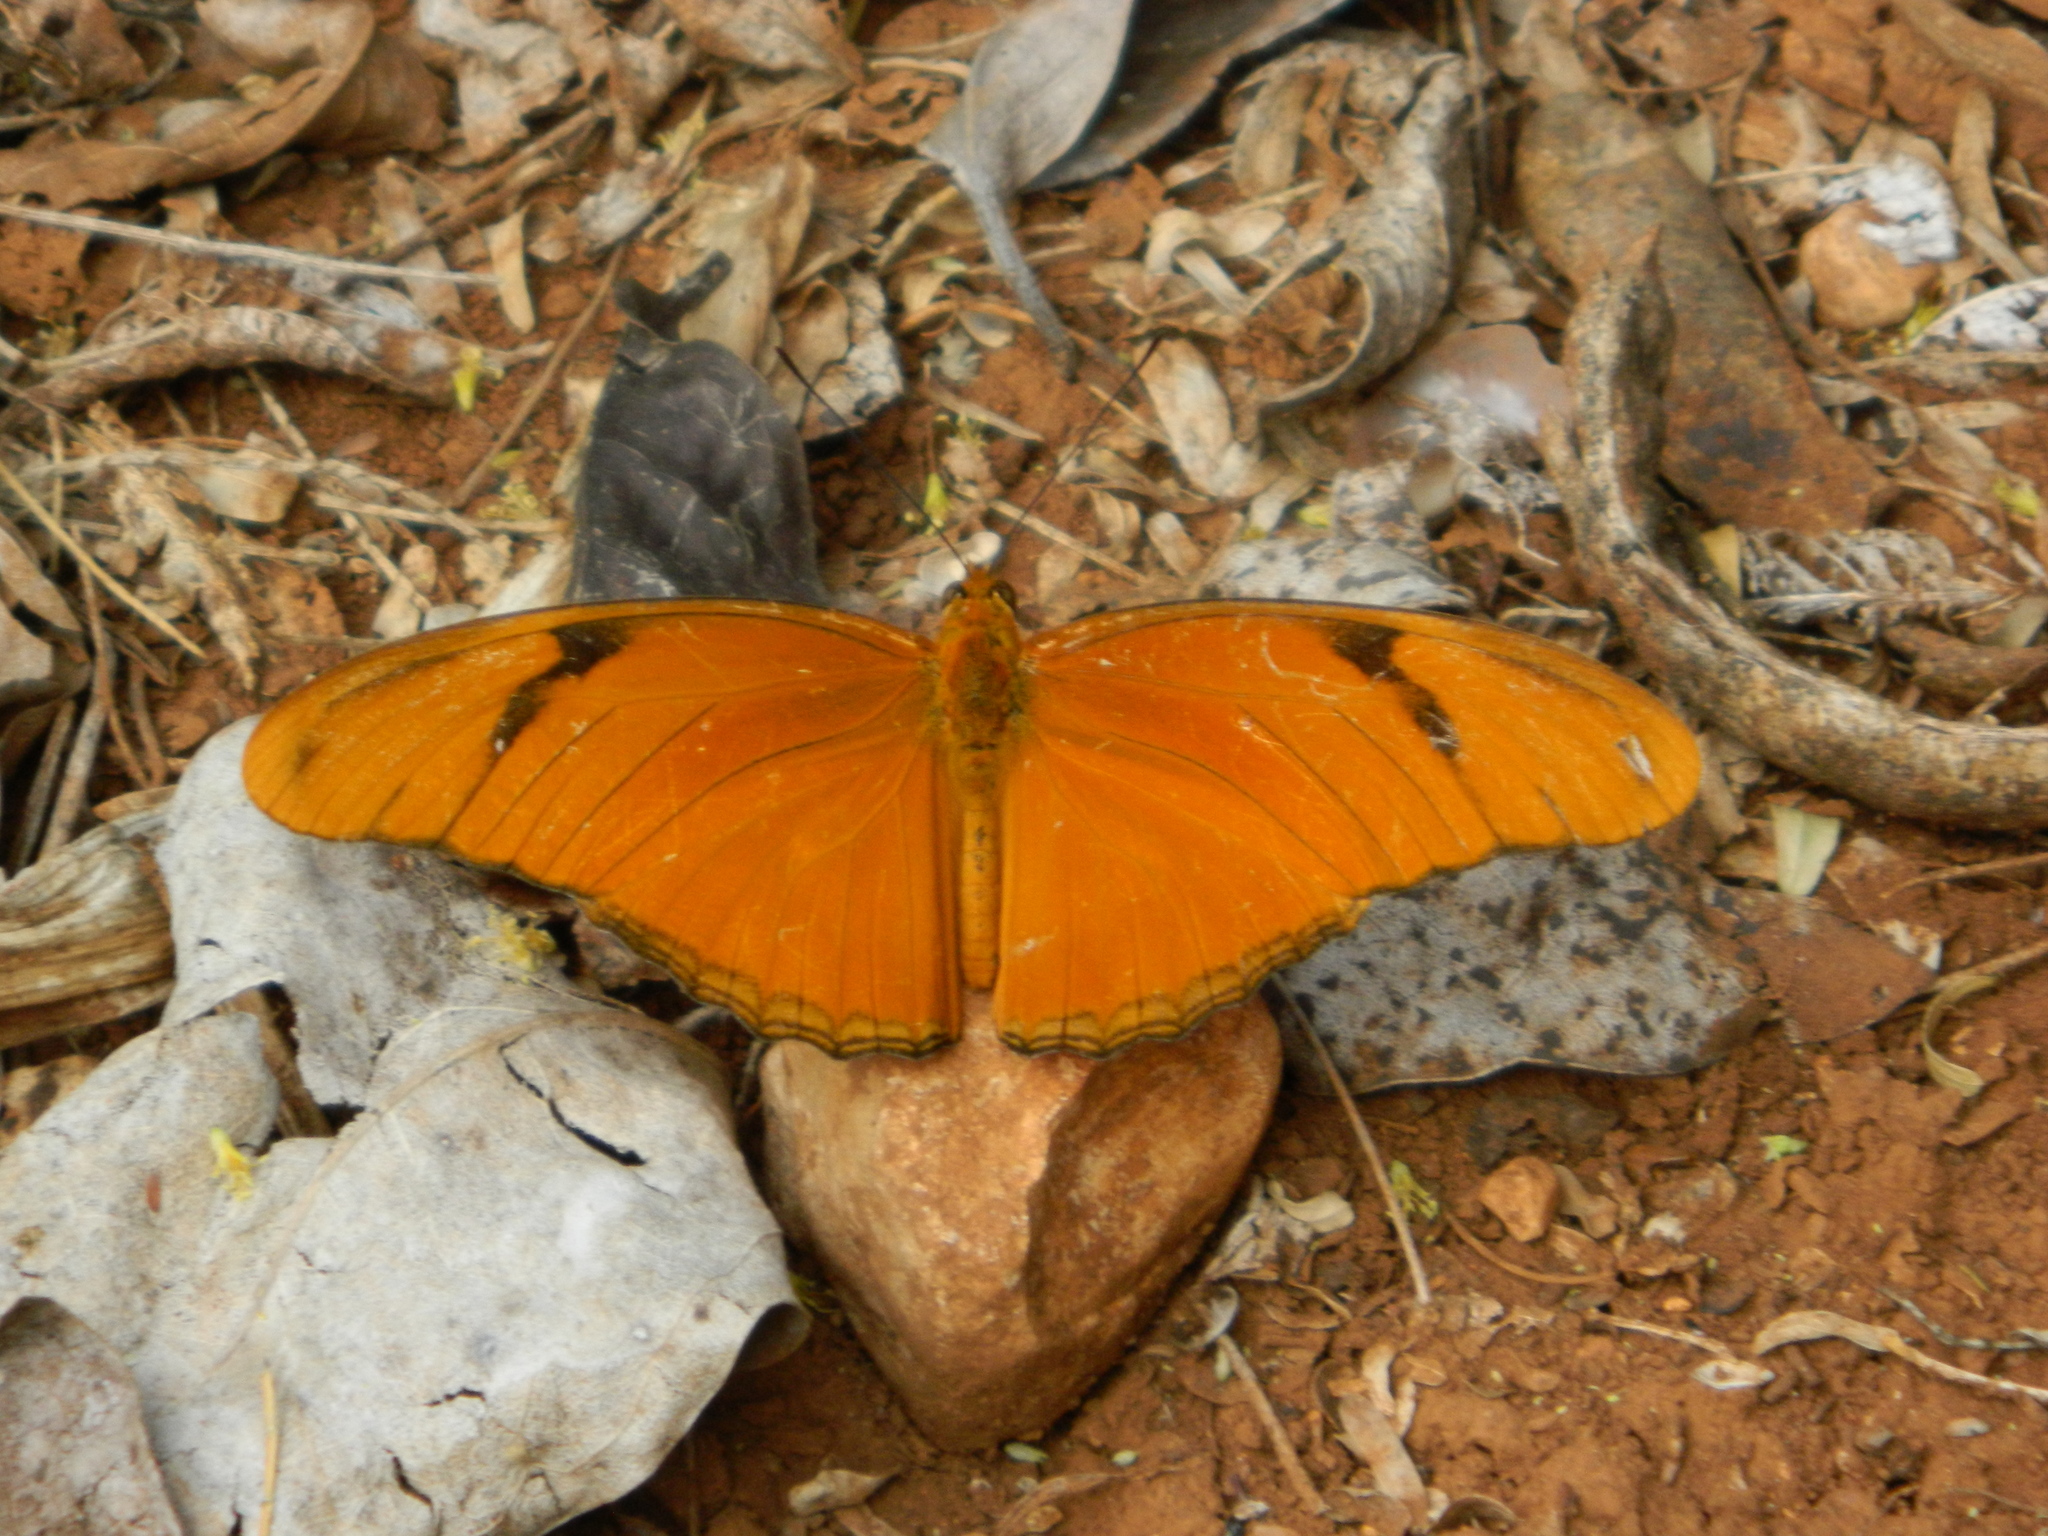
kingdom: Animalia
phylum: Arthropoda
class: Insecta
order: Lepidoptera
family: Nymphalidae
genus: Dryas
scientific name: Dryas iulia
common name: Flambeau
